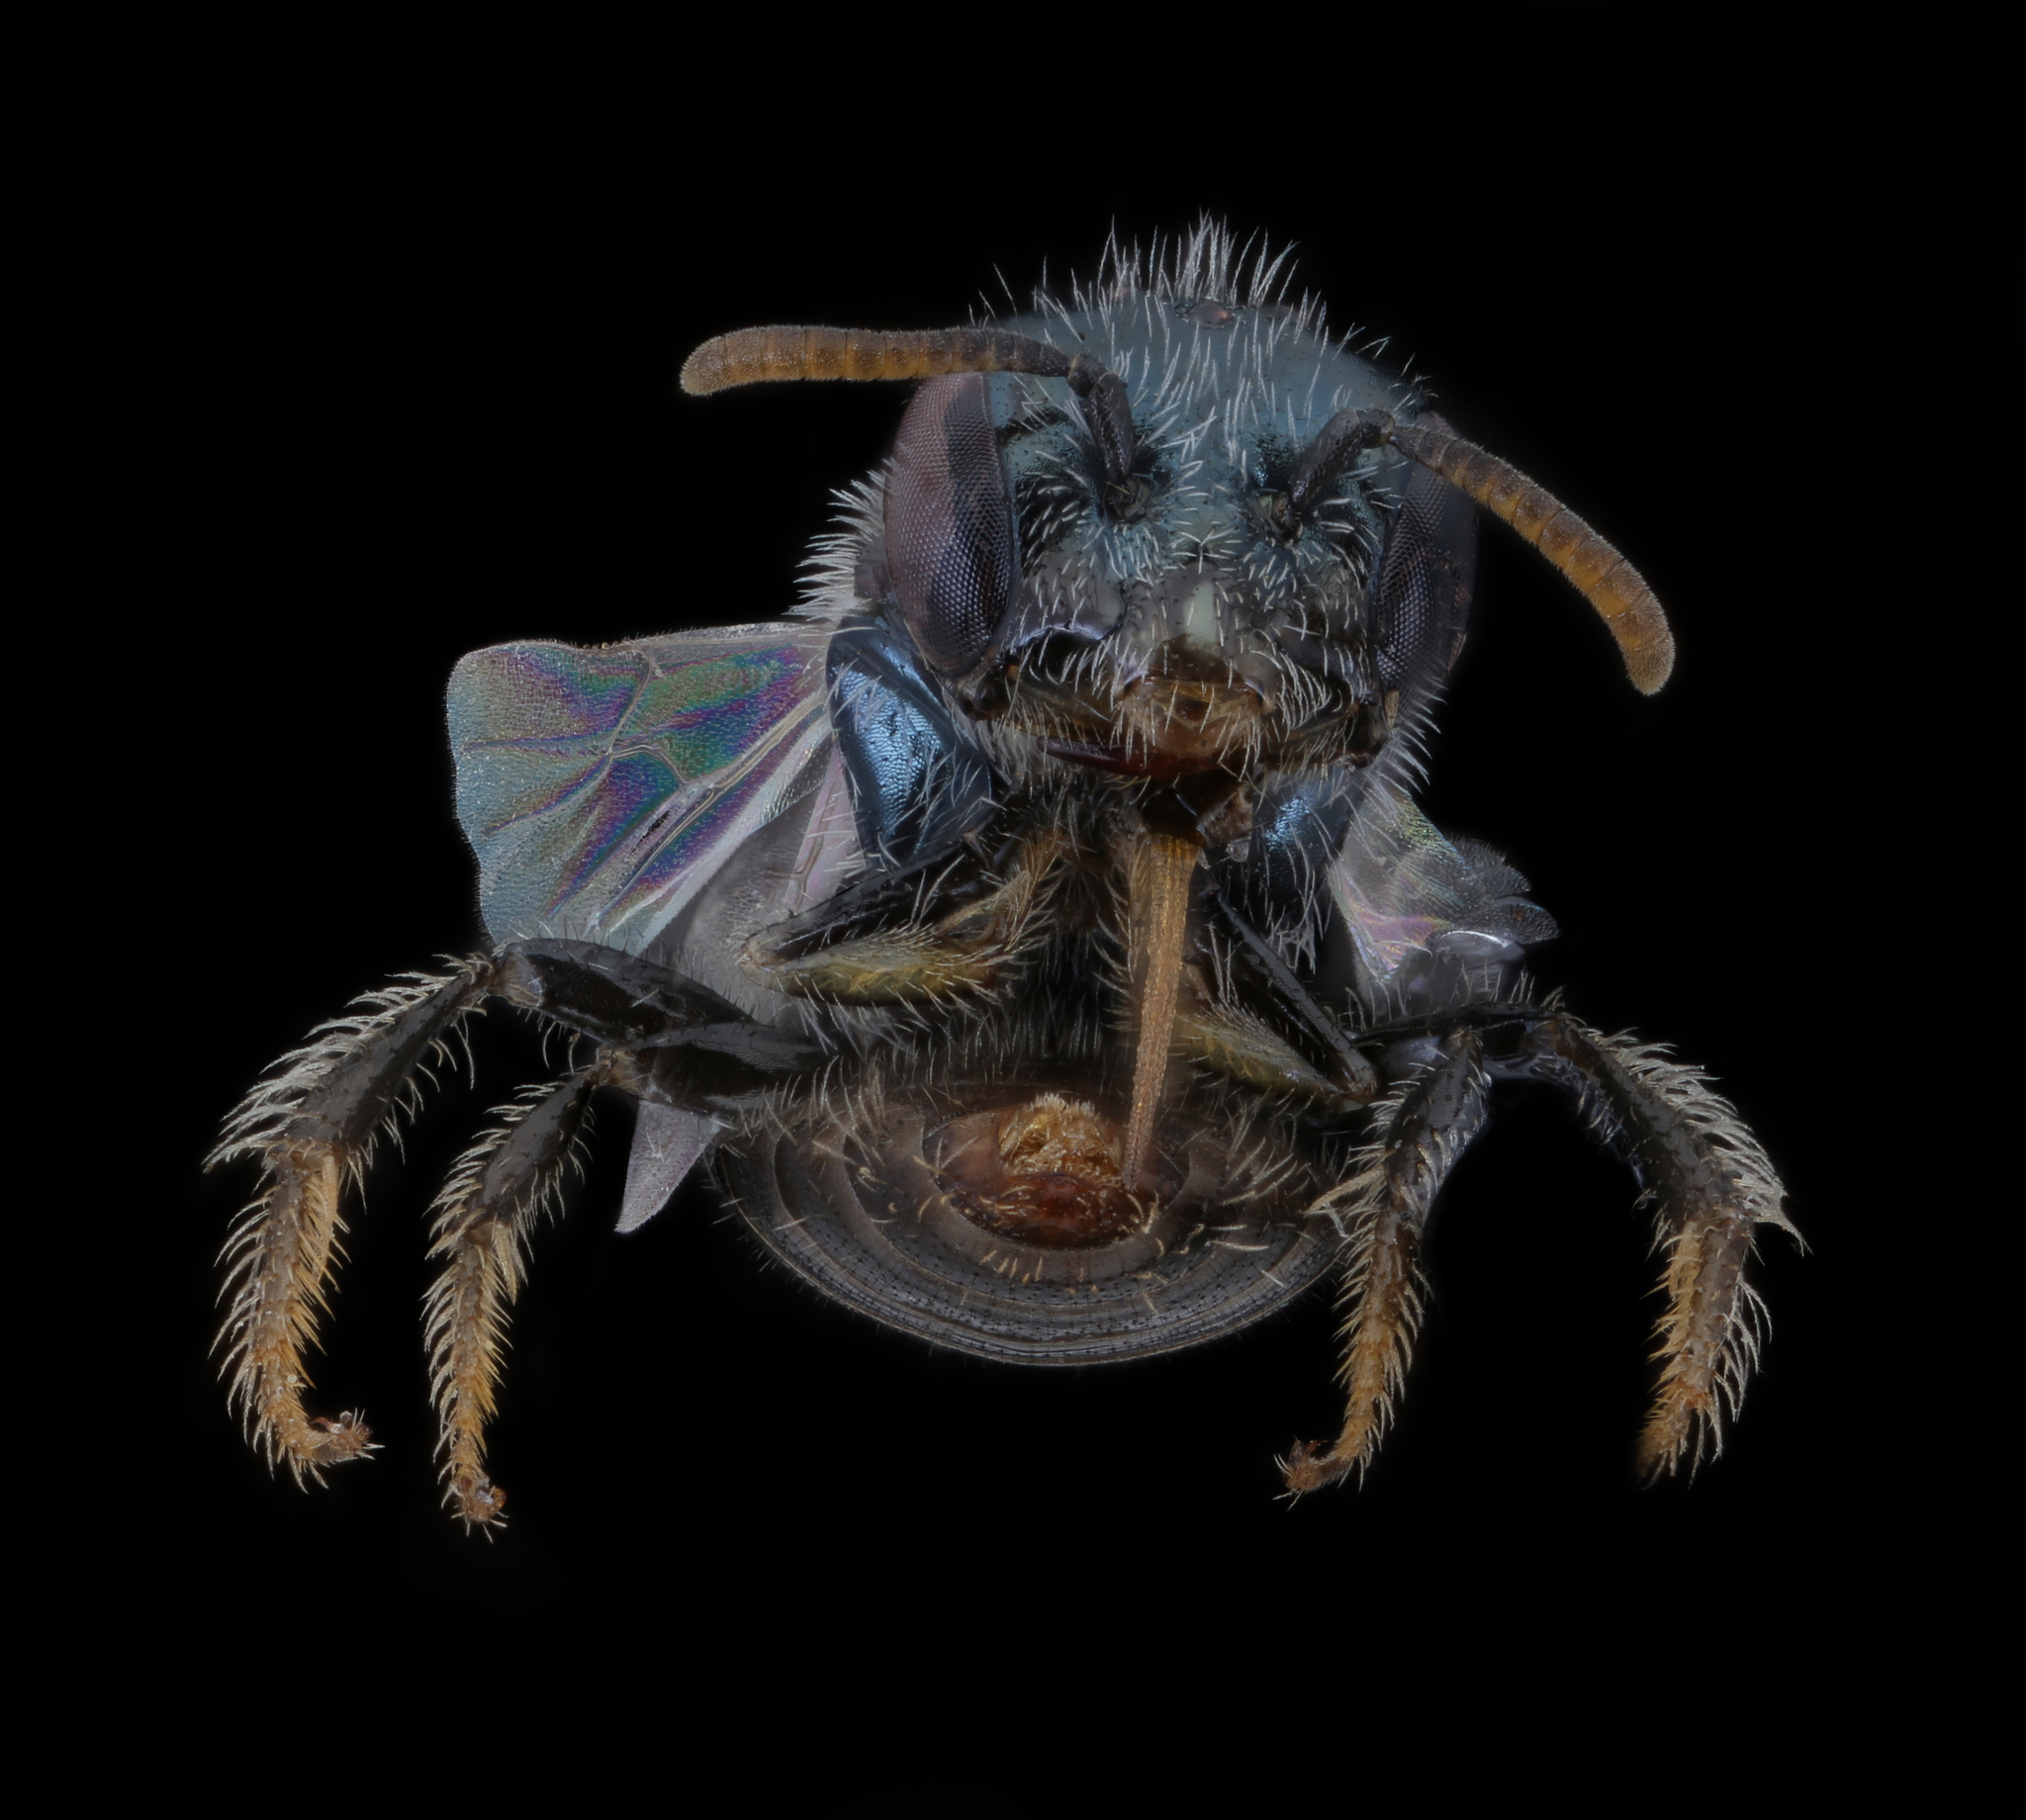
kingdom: Animalia
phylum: Arthropoda
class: Insecta
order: Hymenoptera
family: Andrenidae
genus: Perdita
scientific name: Perdita boltoniae
